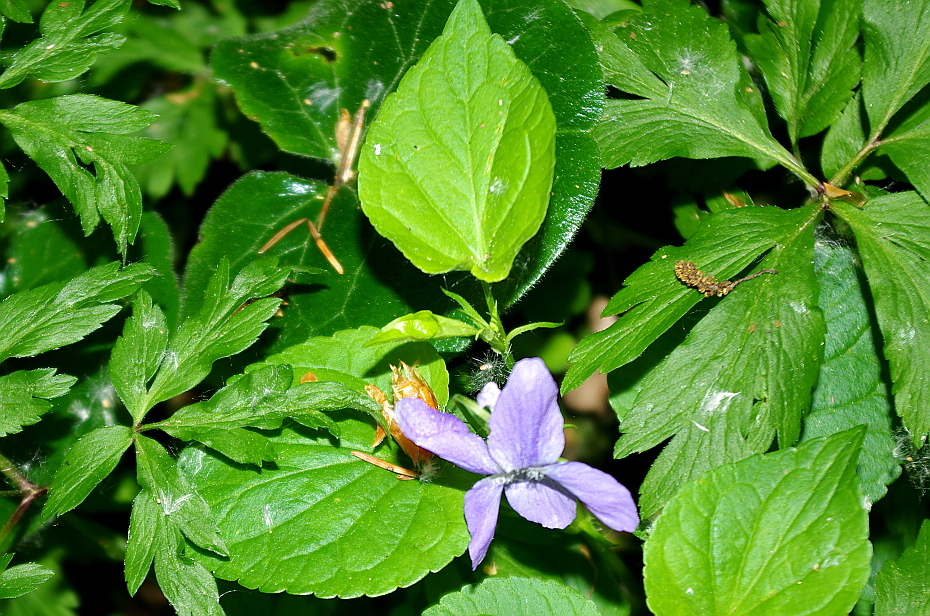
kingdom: Plantae
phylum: Tracheophyta
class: Magnoliopsida
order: Malpighiales
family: Violaceae
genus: Viola
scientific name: Viola riviniana
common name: Common dog-violet
